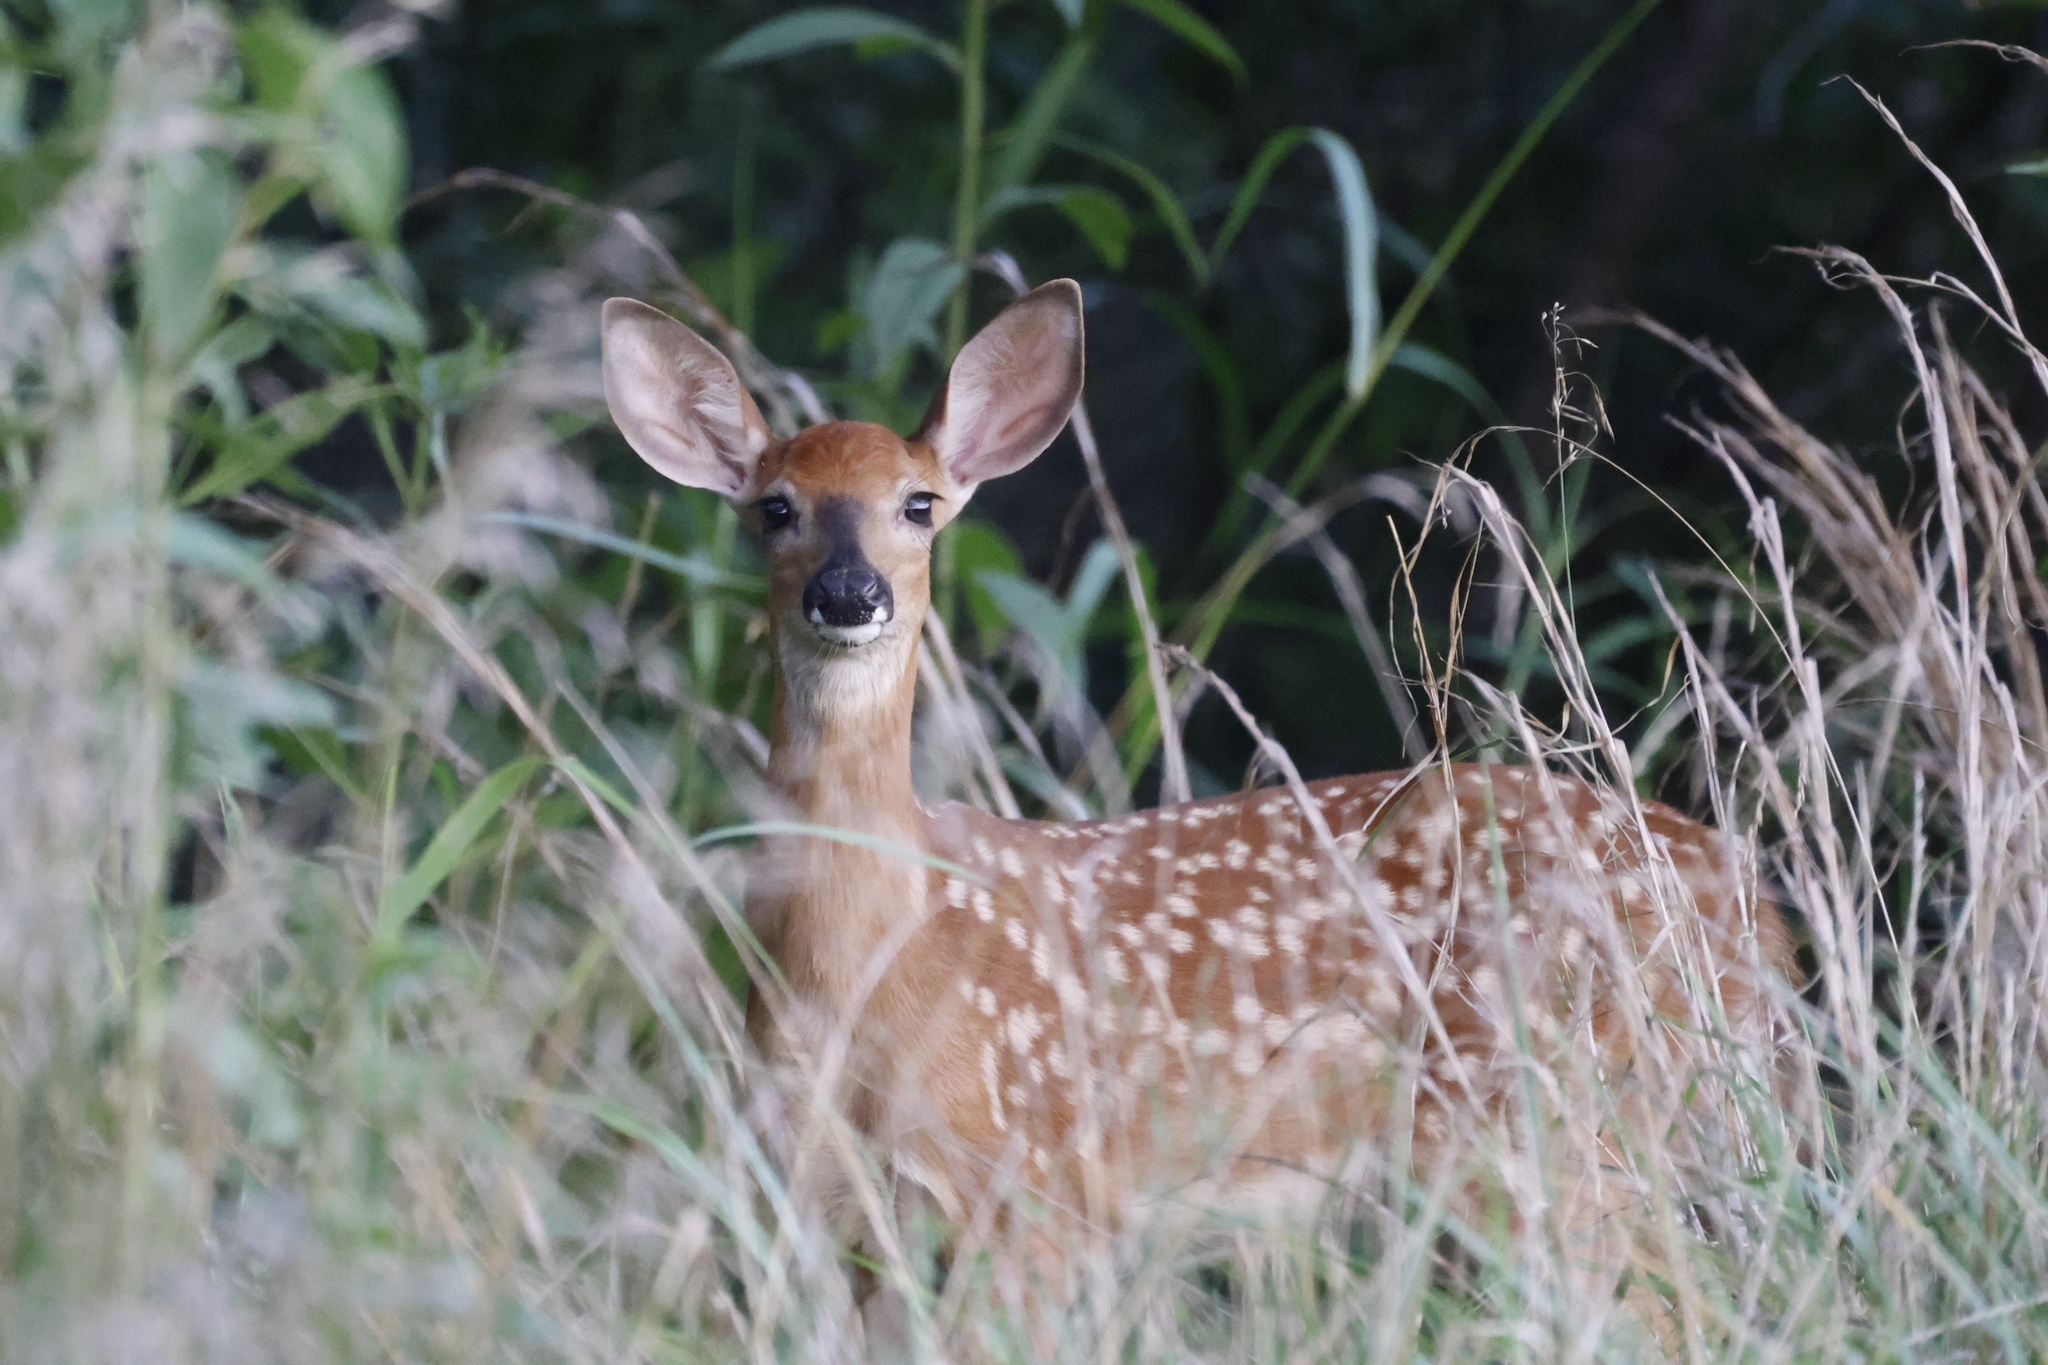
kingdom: Animalia
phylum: Chordata
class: Mammalia
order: Artiodactyla
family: Cervidae
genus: Odocoileus
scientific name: Odocoileus virginianus
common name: White-tailed deer
